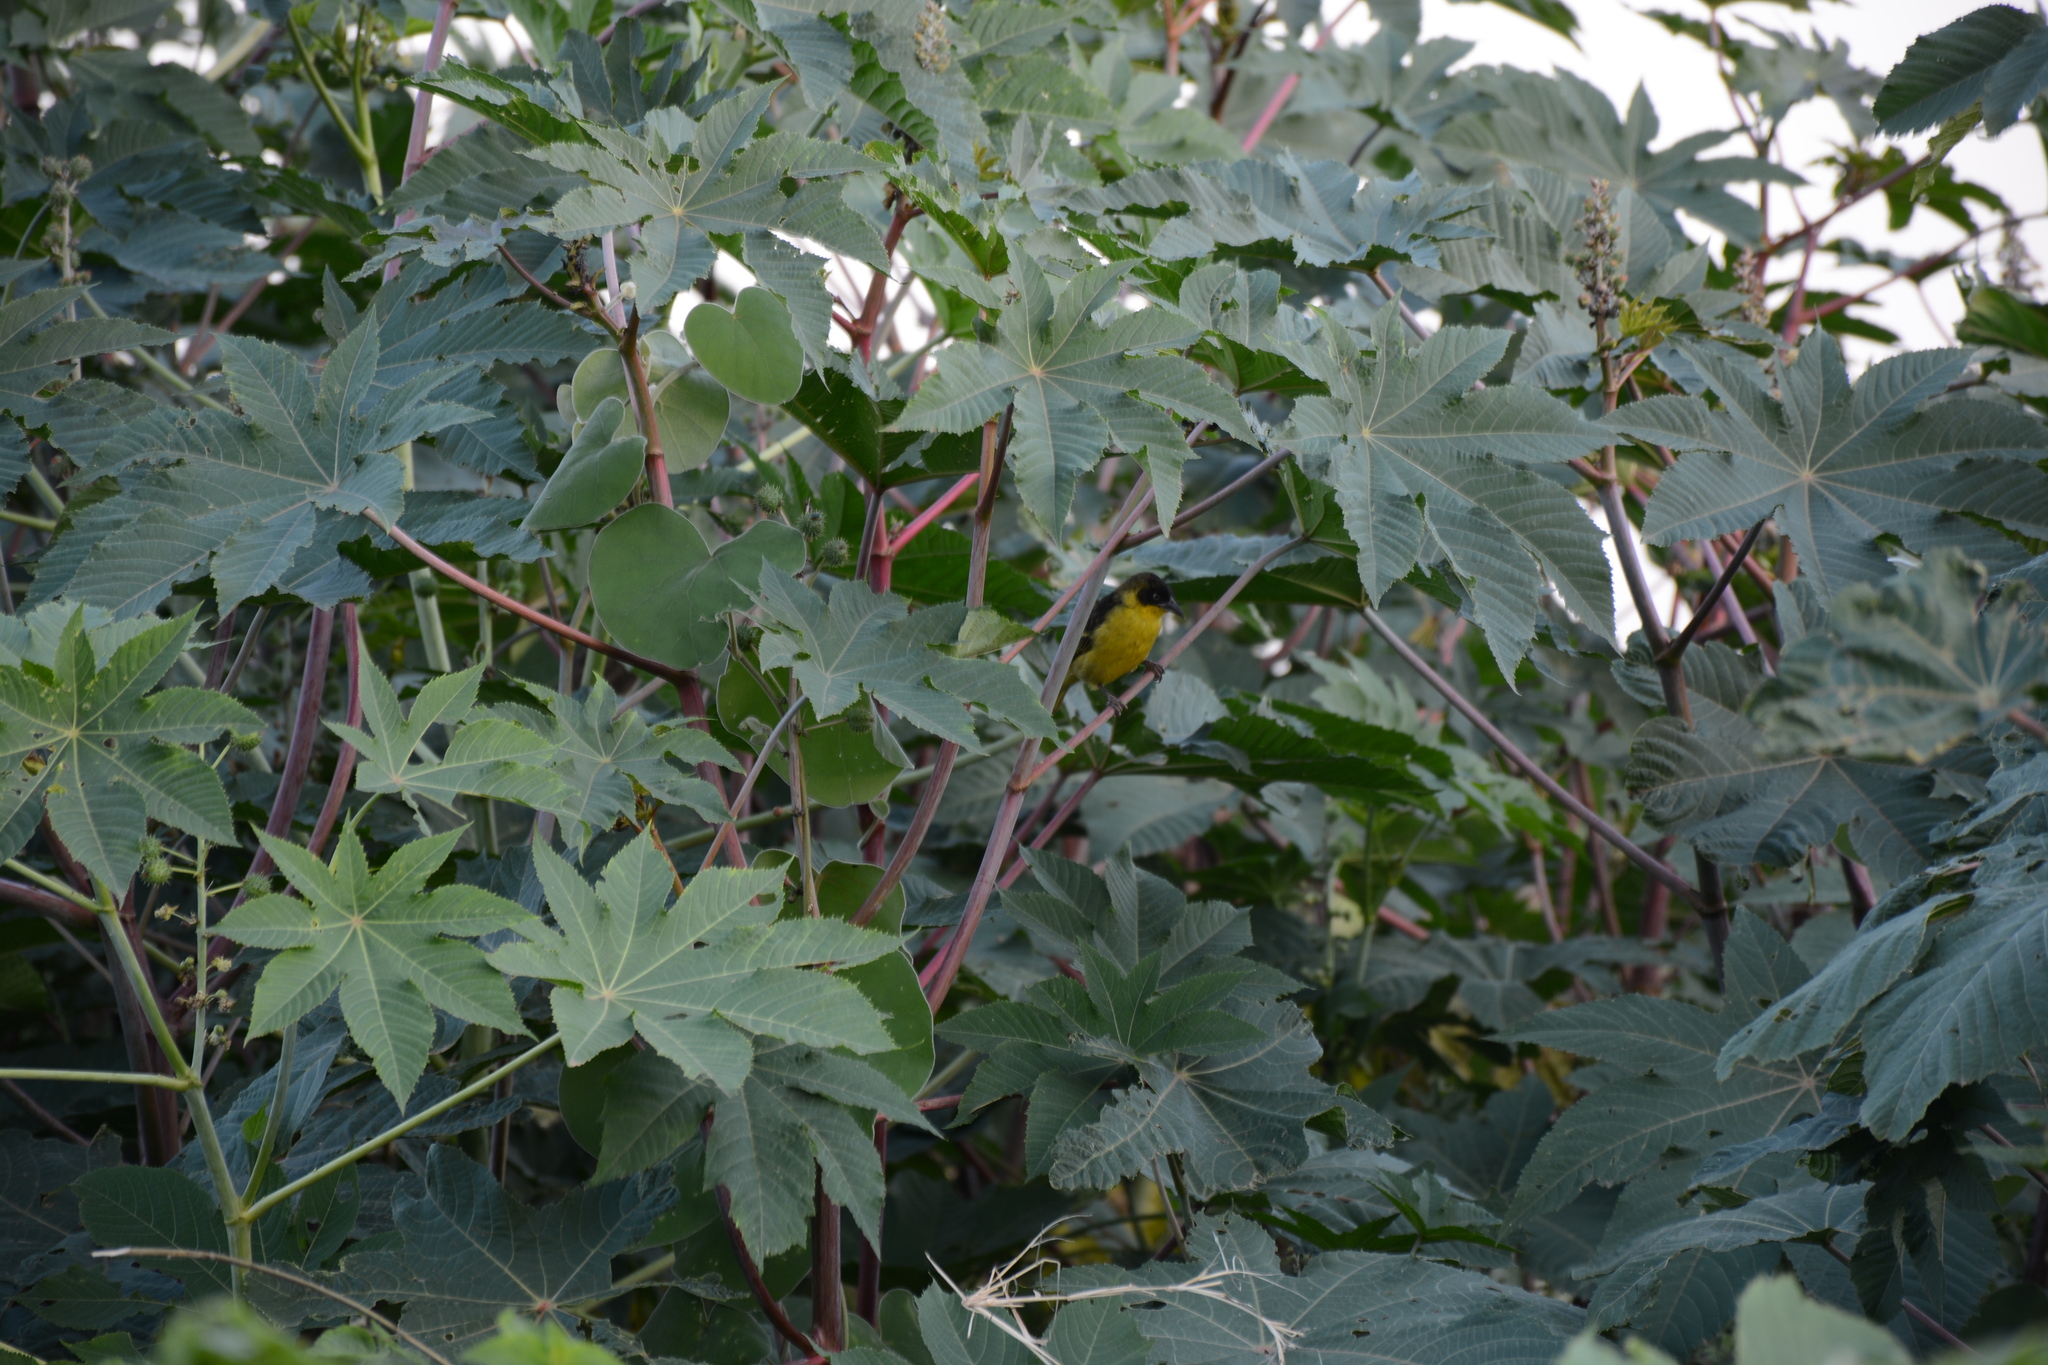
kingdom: Plantae
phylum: Tracheophyta
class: Magnoliopsida
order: Malpighiales
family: Euphorbiaceae
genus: Ricinus
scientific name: Ricinus communis
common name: Castor-oil-plant
